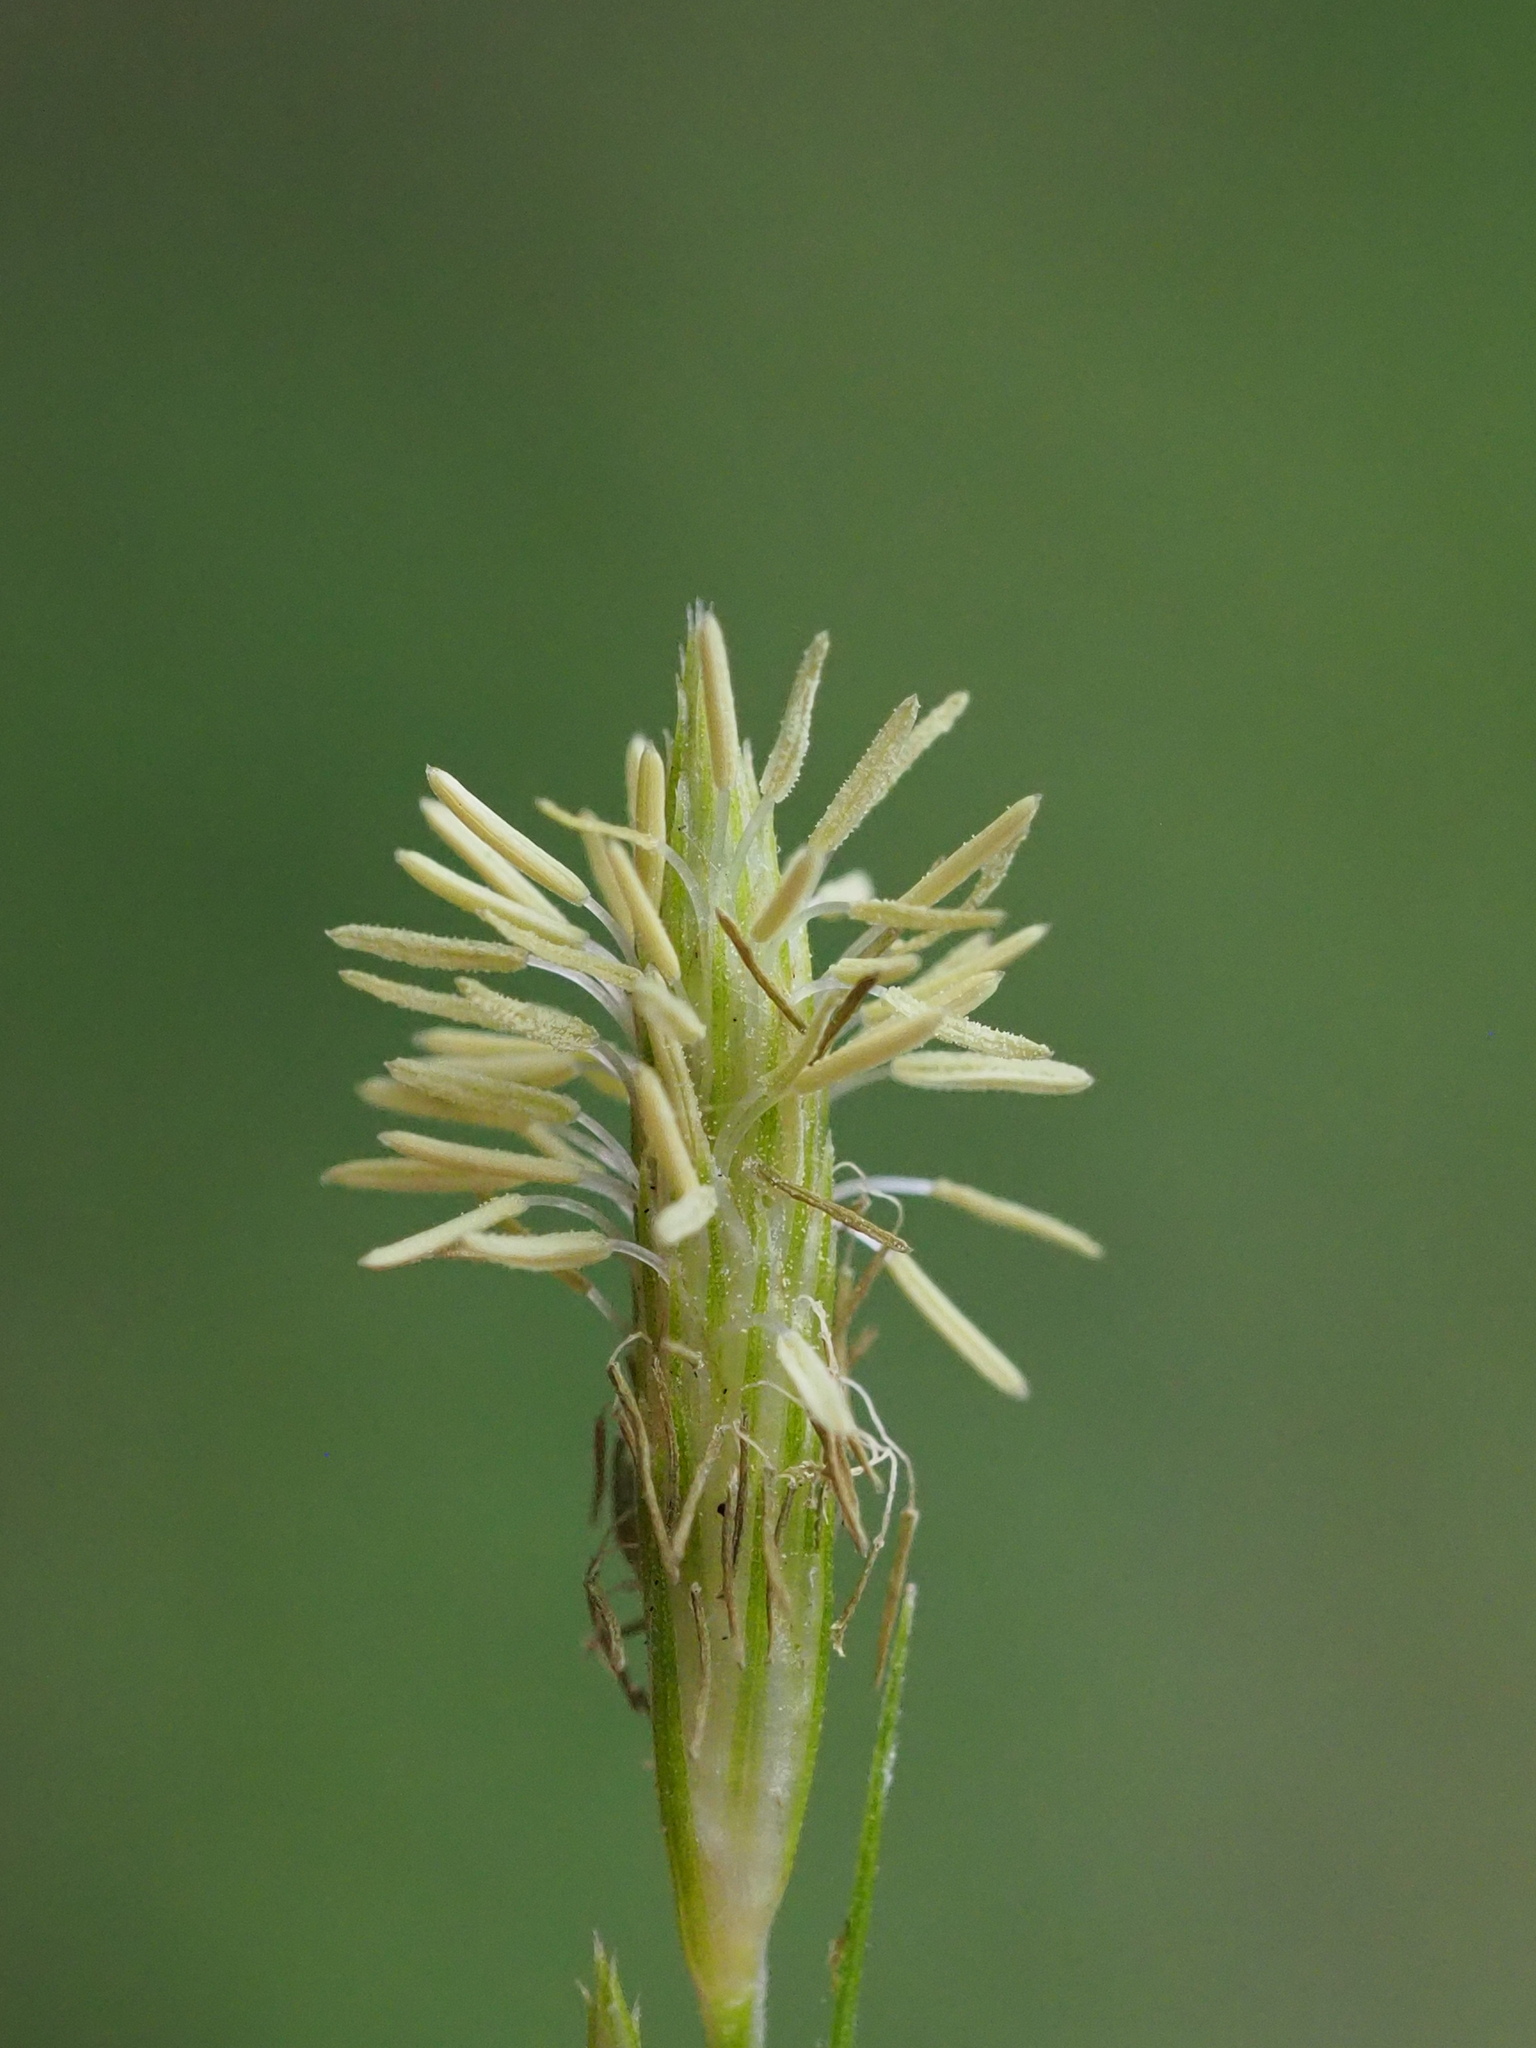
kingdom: Plantae
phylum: Tracheophyta
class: Liliopsida
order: Poales
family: Cyperaceae
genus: Carex
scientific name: Carex sociata
